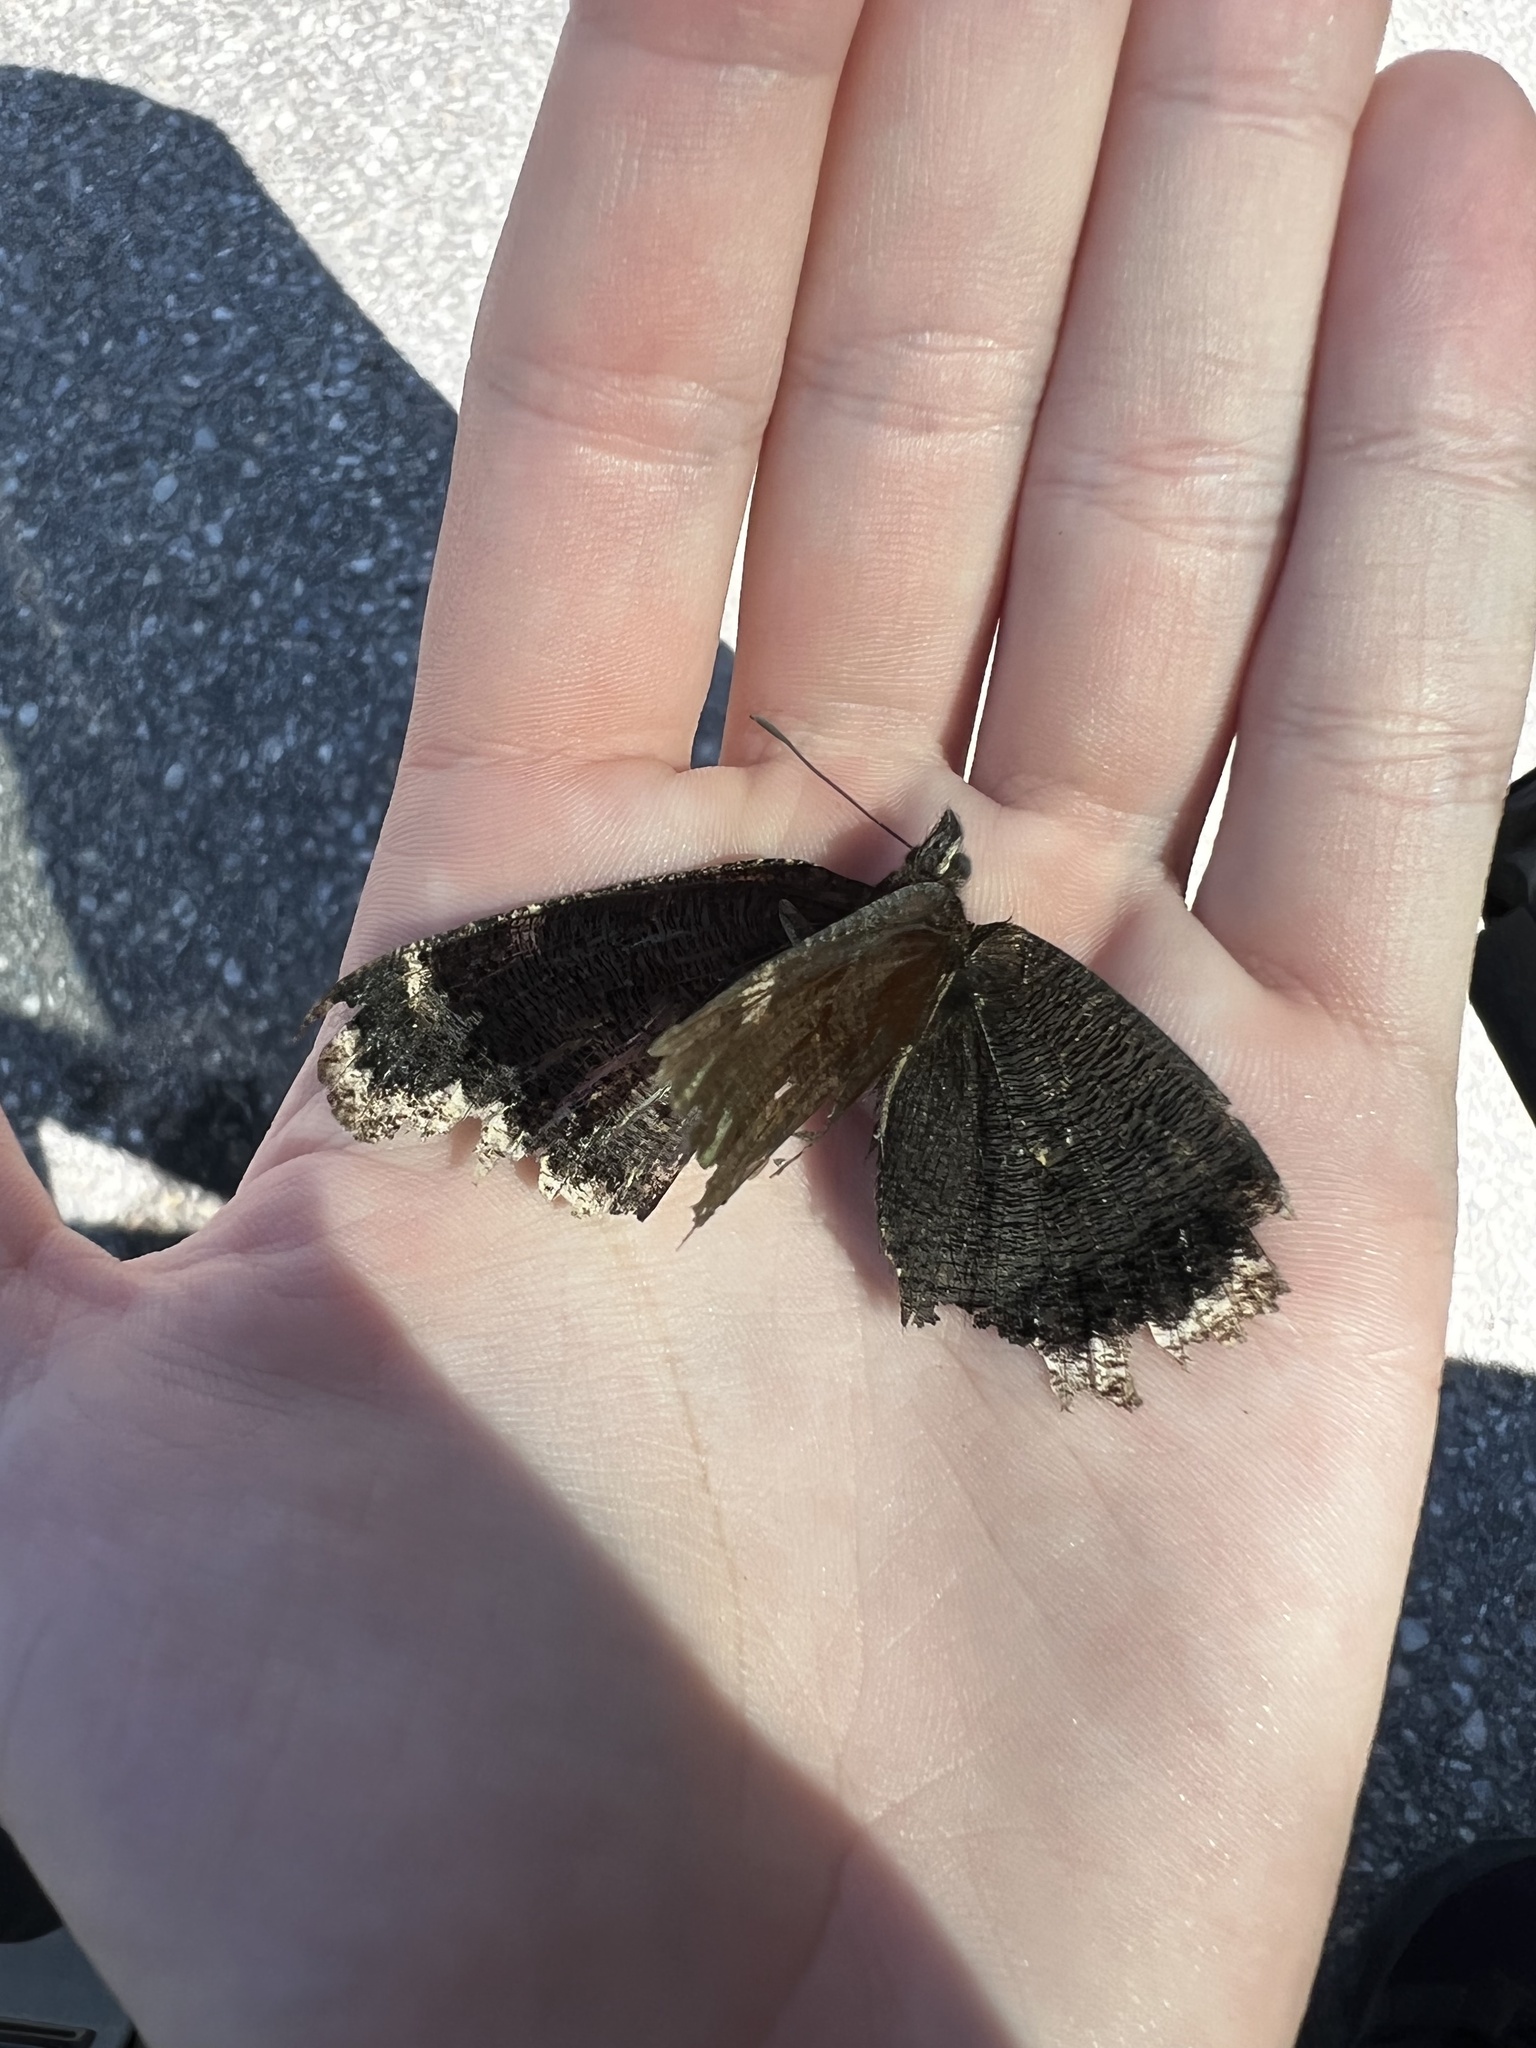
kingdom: Animalia
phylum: Arthropoda
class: Insecta
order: Lepidoptera
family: Nymphalidae
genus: Nymphalis
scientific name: Nymphalis antiopa
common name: Camberwell beauty
